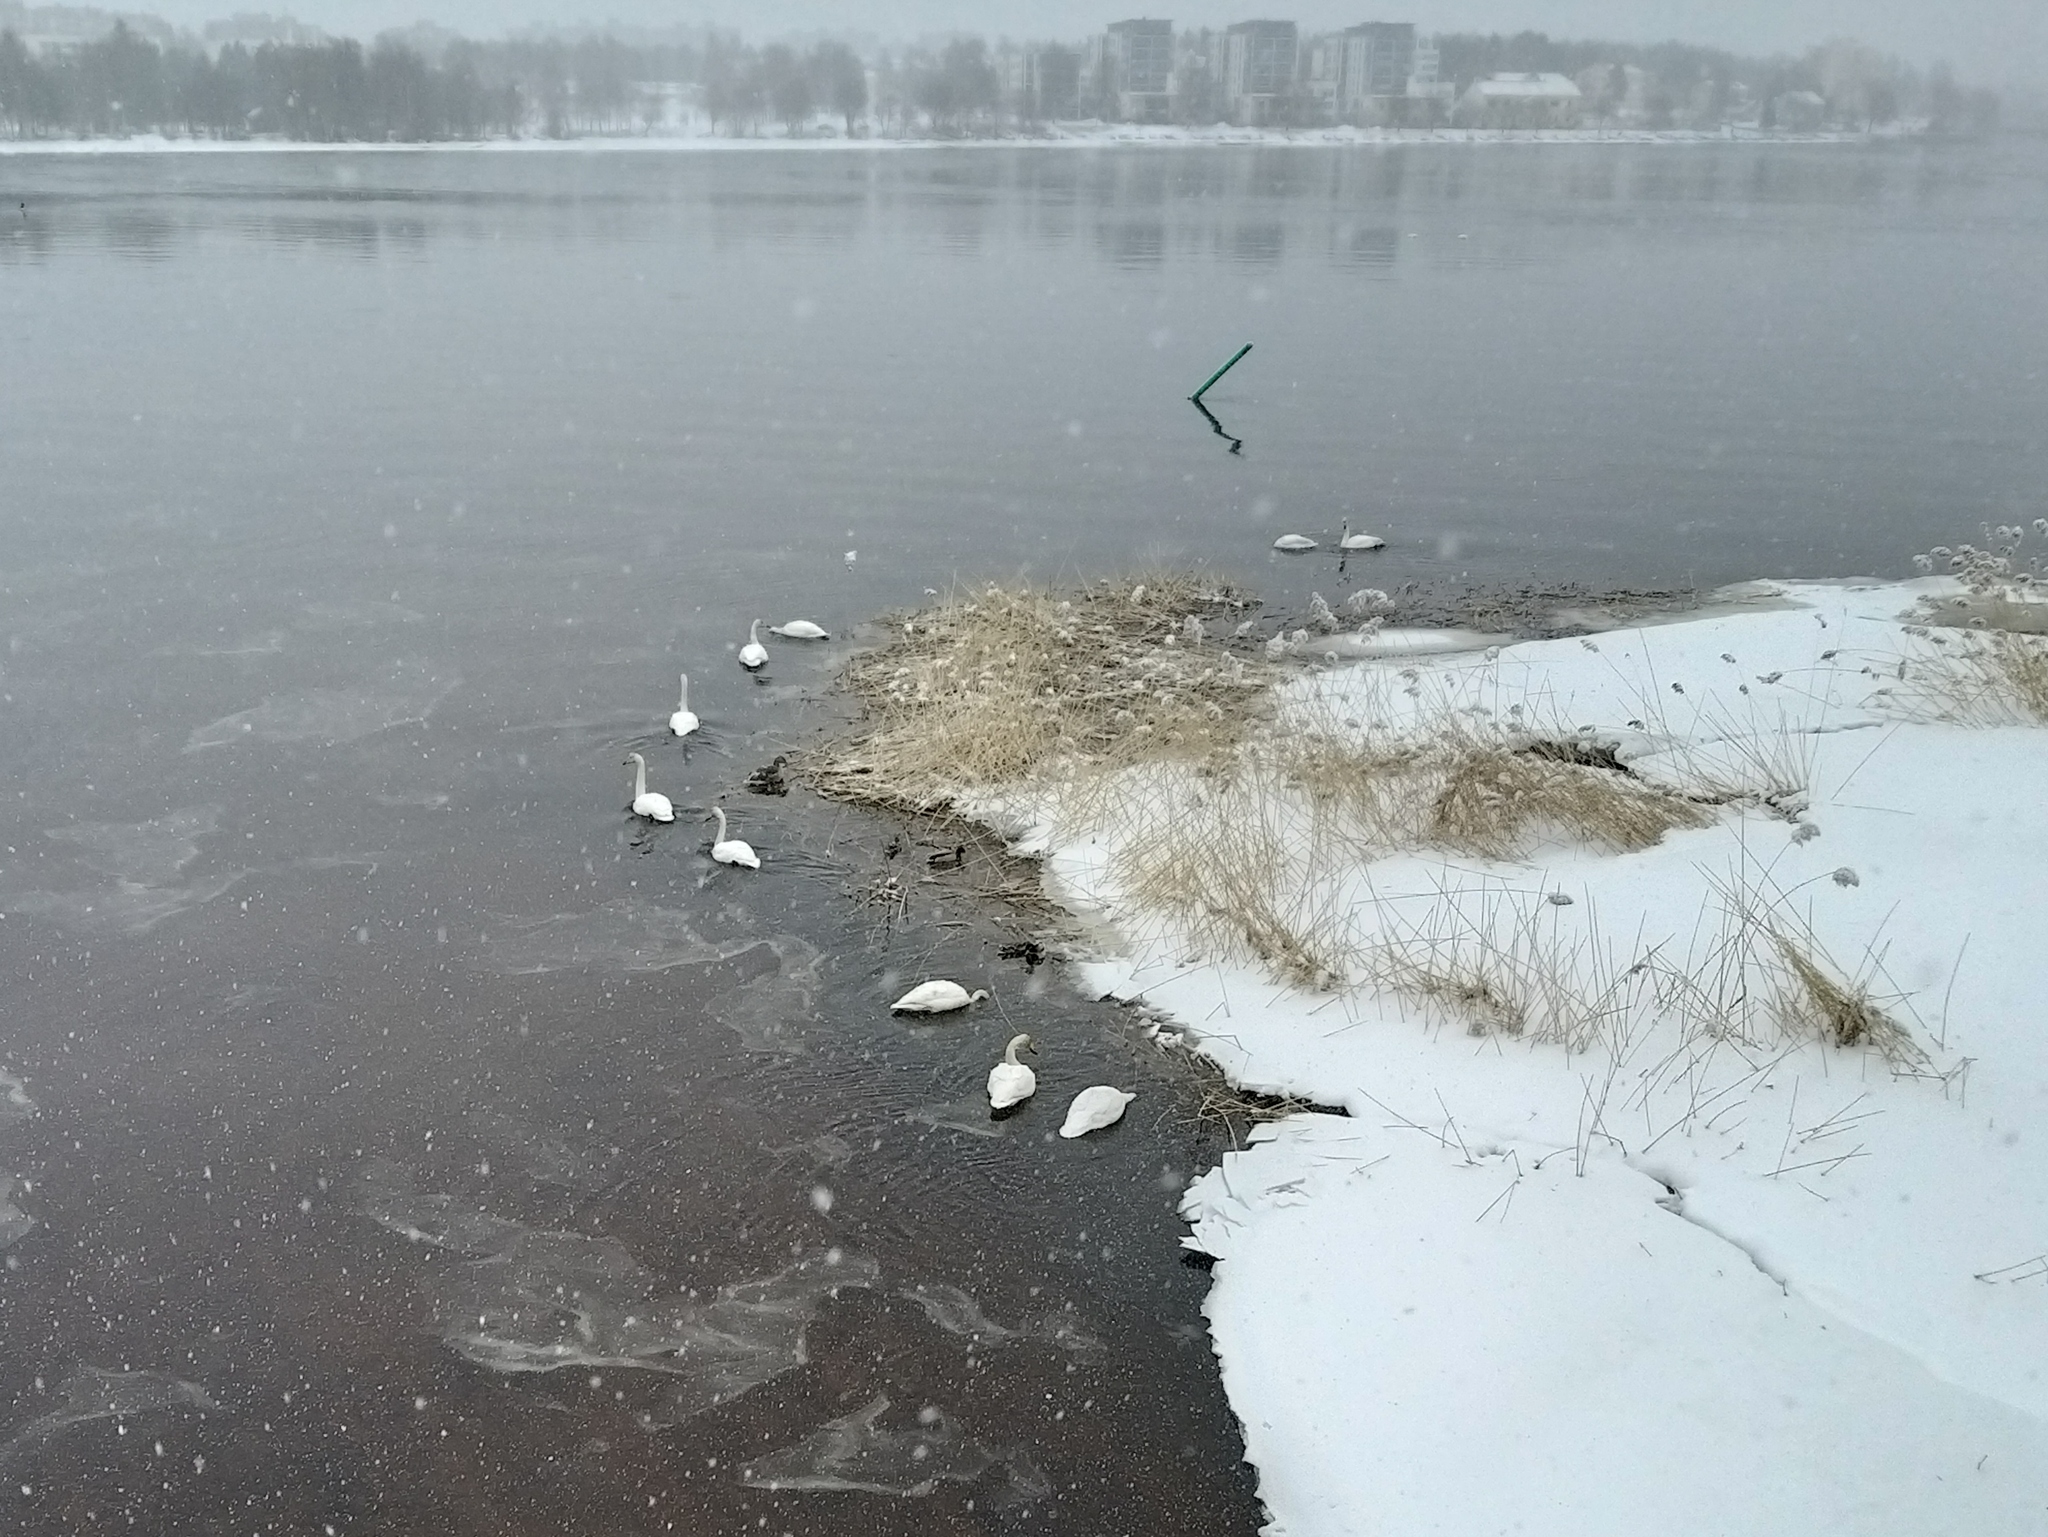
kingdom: Animalia
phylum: Chordata
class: Aves
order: Anseriformes
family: Anatidae
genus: Cygnus
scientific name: Cygnus cygnus
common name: Whooper swan
